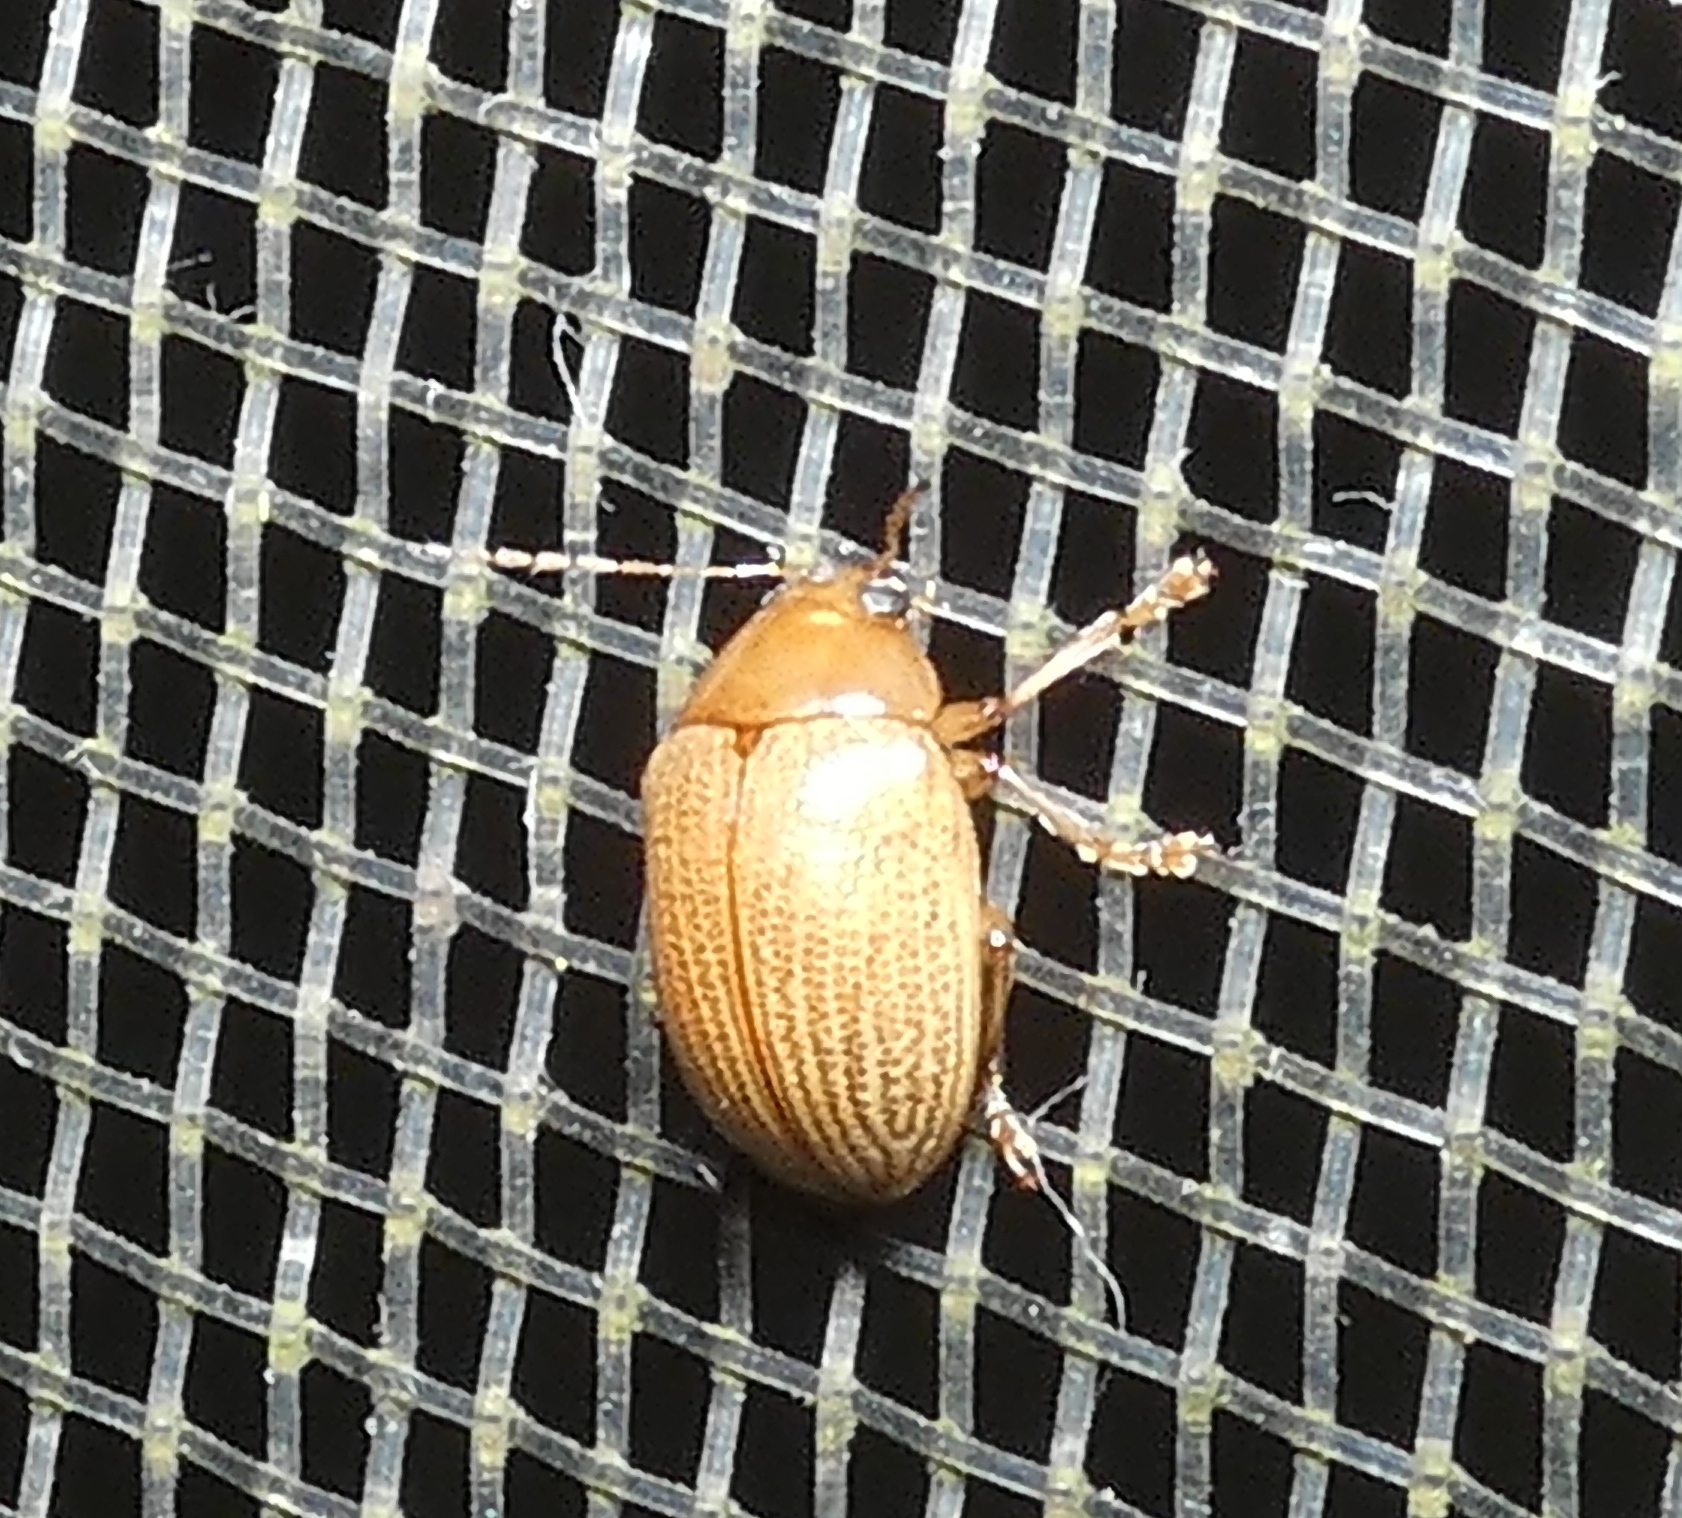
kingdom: Animalia
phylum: Arthropoda
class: Insecta
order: Coleoptera
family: Chrysomelidae
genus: Anisodera
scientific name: Anisodera ferruginea
